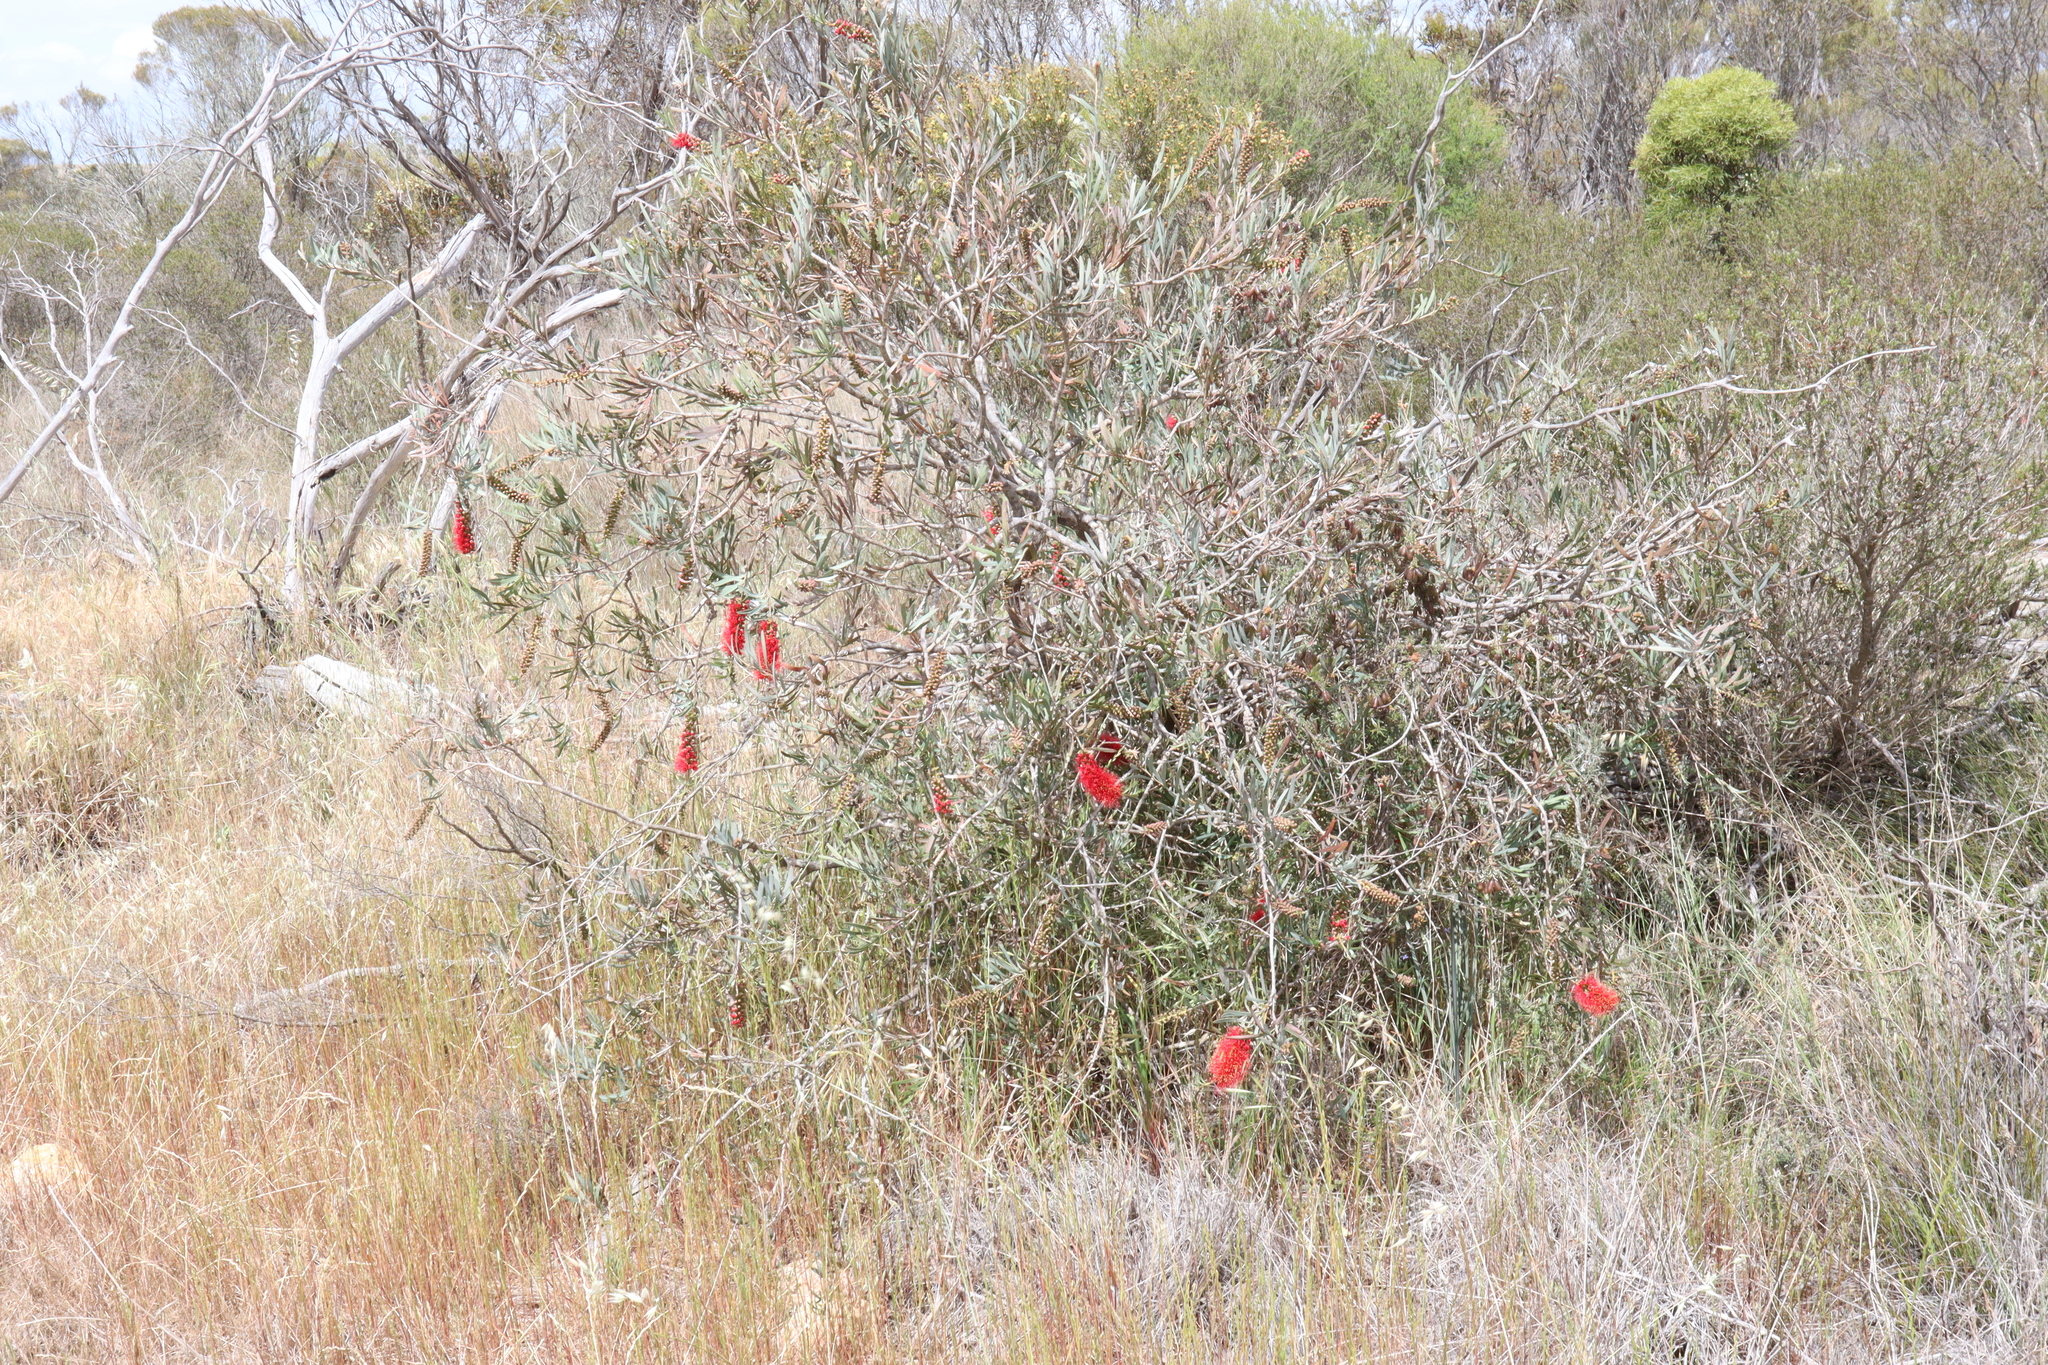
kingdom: Plantae
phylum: Tracheophyta
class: Magnoliopsida
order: Myrtales
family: Myrtaceae
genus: Callistemon
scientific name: Callistemon phoeniceus
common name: Lesser bottlebrush
